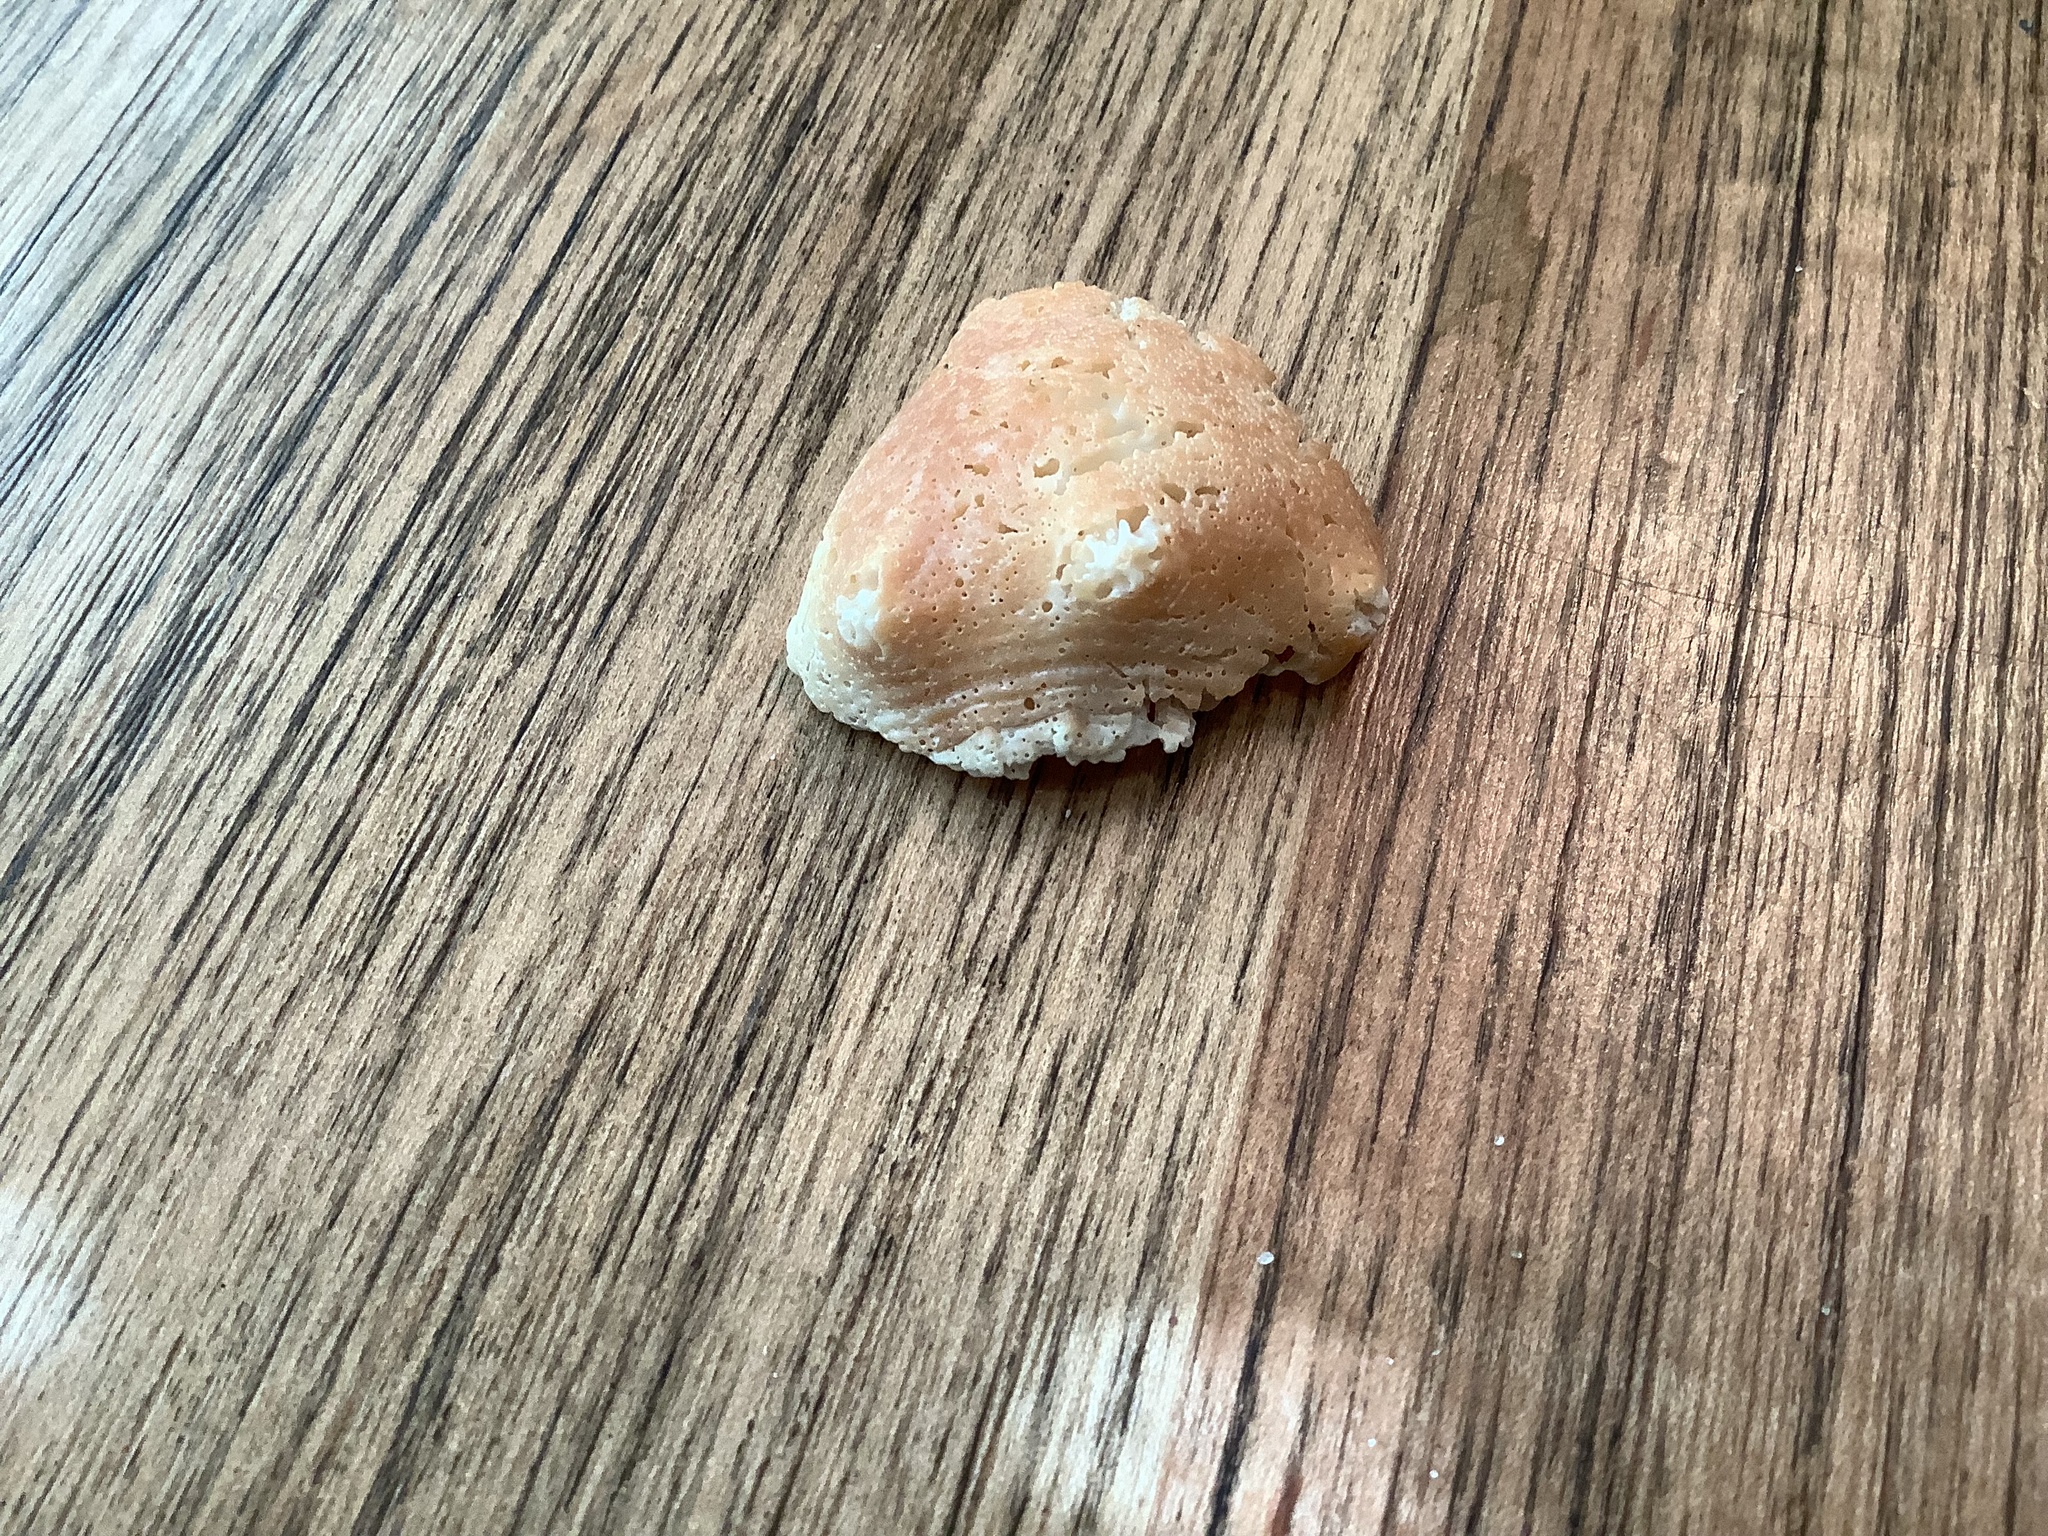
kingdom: Animalia
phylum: Mollusca
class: Gastropoda
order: Littorinimorpha
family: Strombidae
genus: Strombus
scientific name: Strombus alatus
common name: Florida fighting conch
